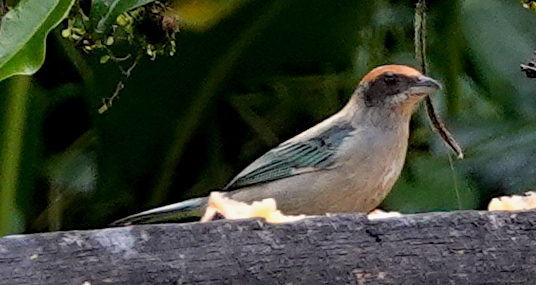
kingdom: Animalia
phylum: Chordata
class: Aves
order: Passeriformes
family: Thraupidae
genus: Stilpnia
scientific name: Stilpnia vitriolina
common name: Scrub tanager
